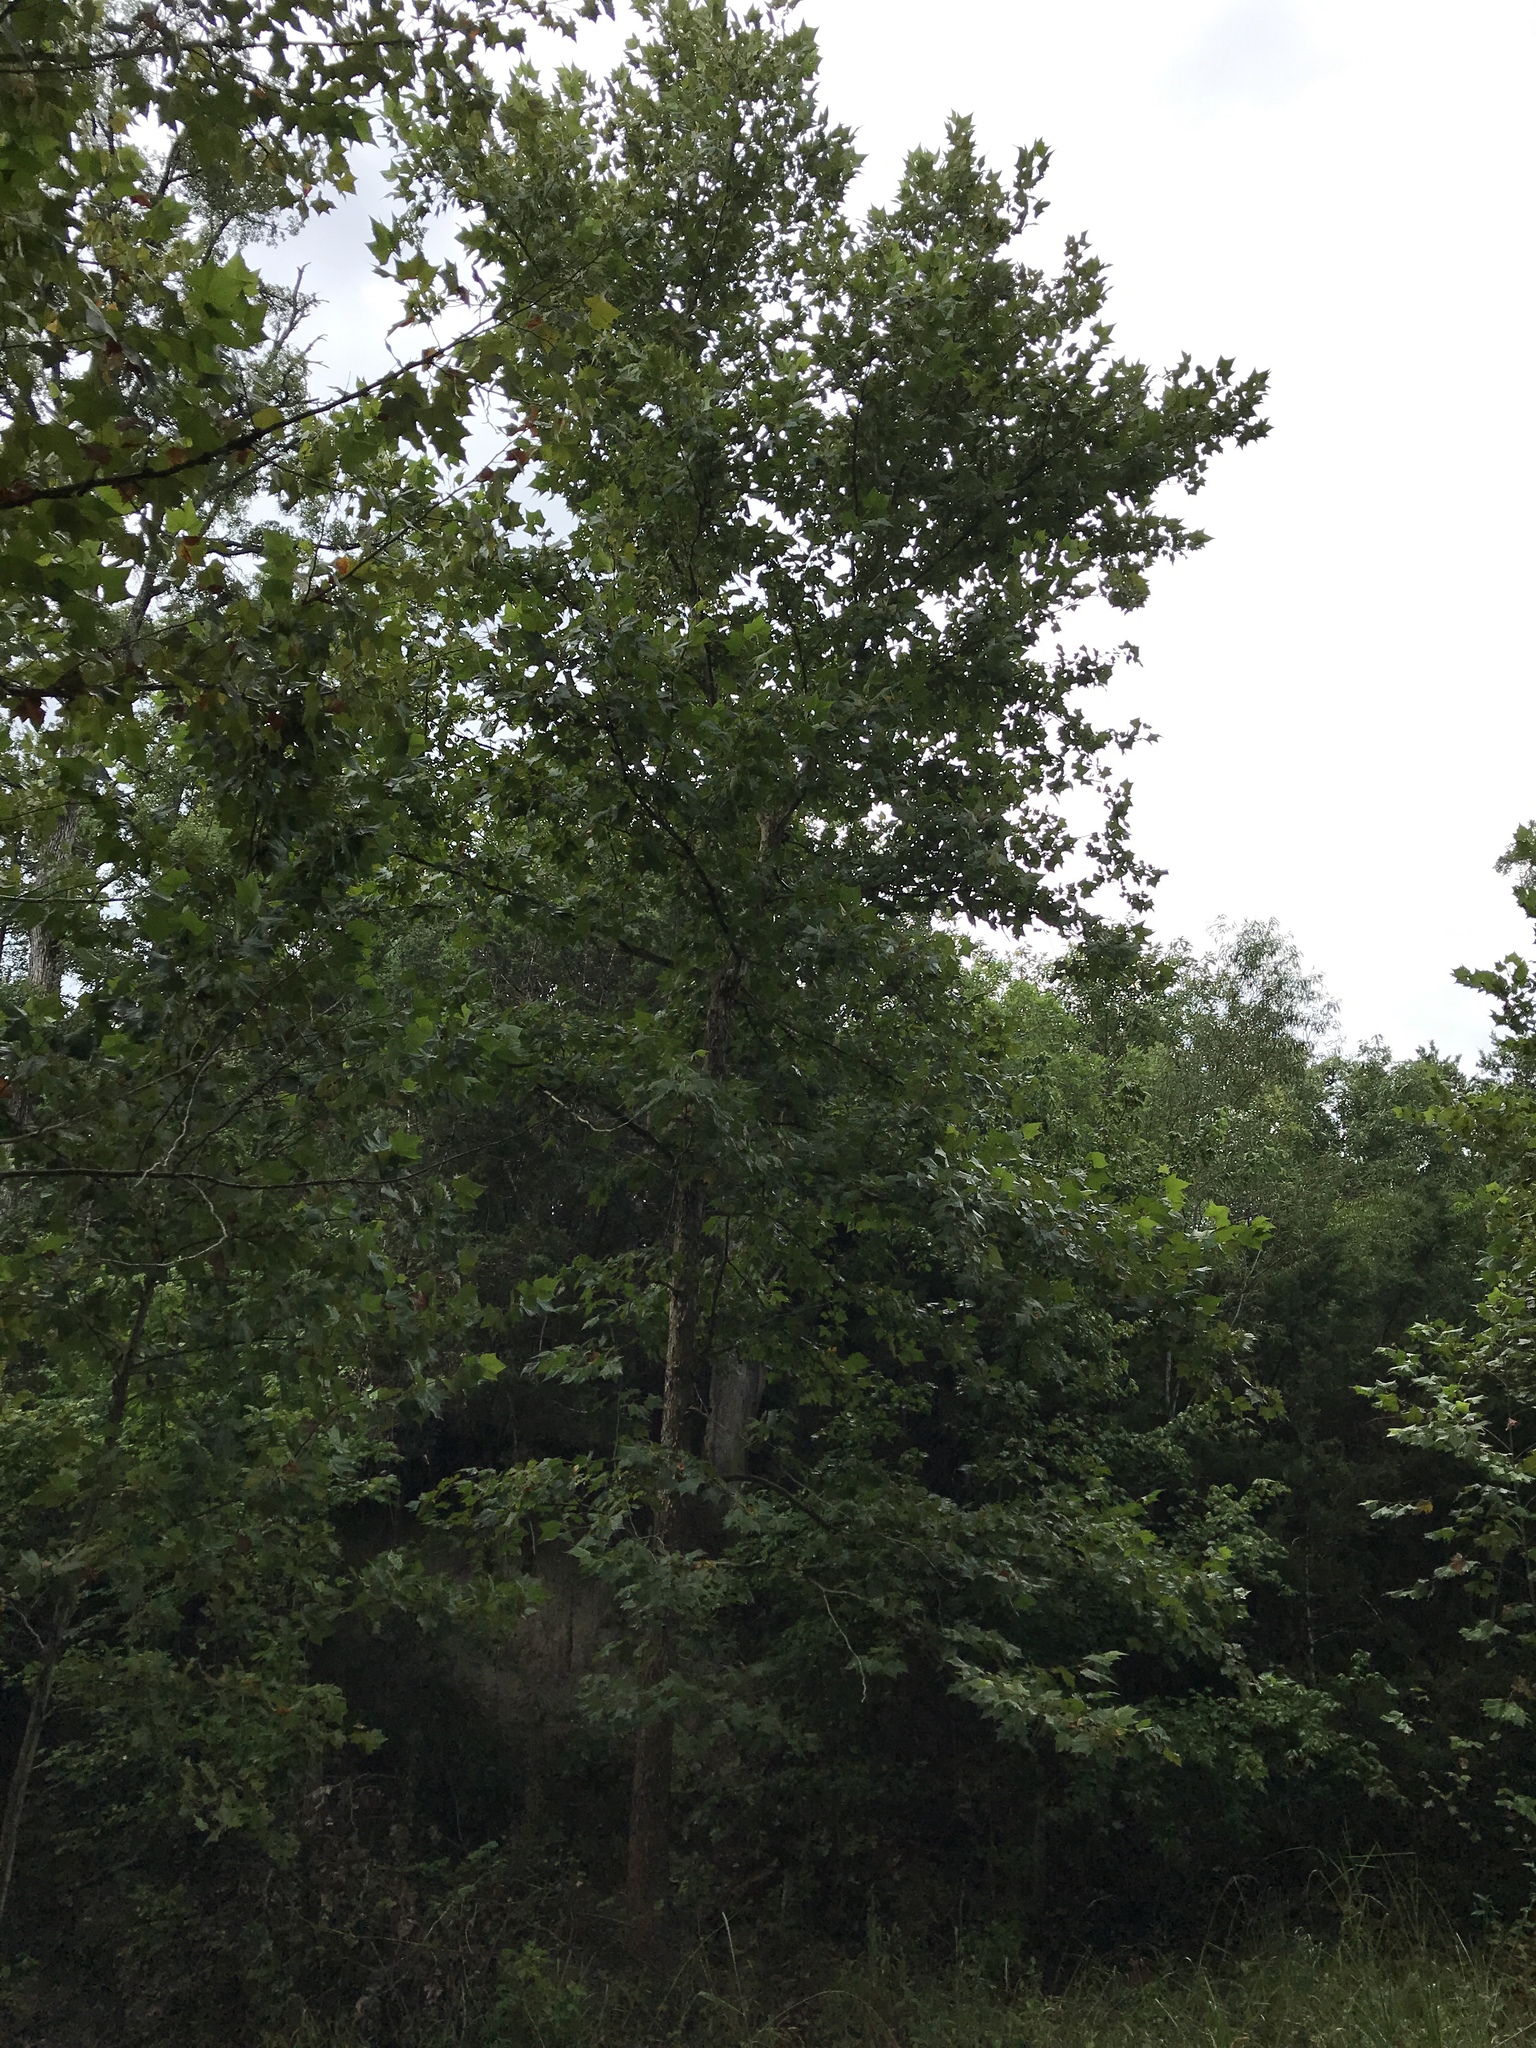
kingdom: Plantae
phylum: Tracheophyta
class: Magnoliopsida
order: Proteales
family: Platanaceae
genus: Platanus
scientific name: Platanus occidentalis
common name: American sycamore
